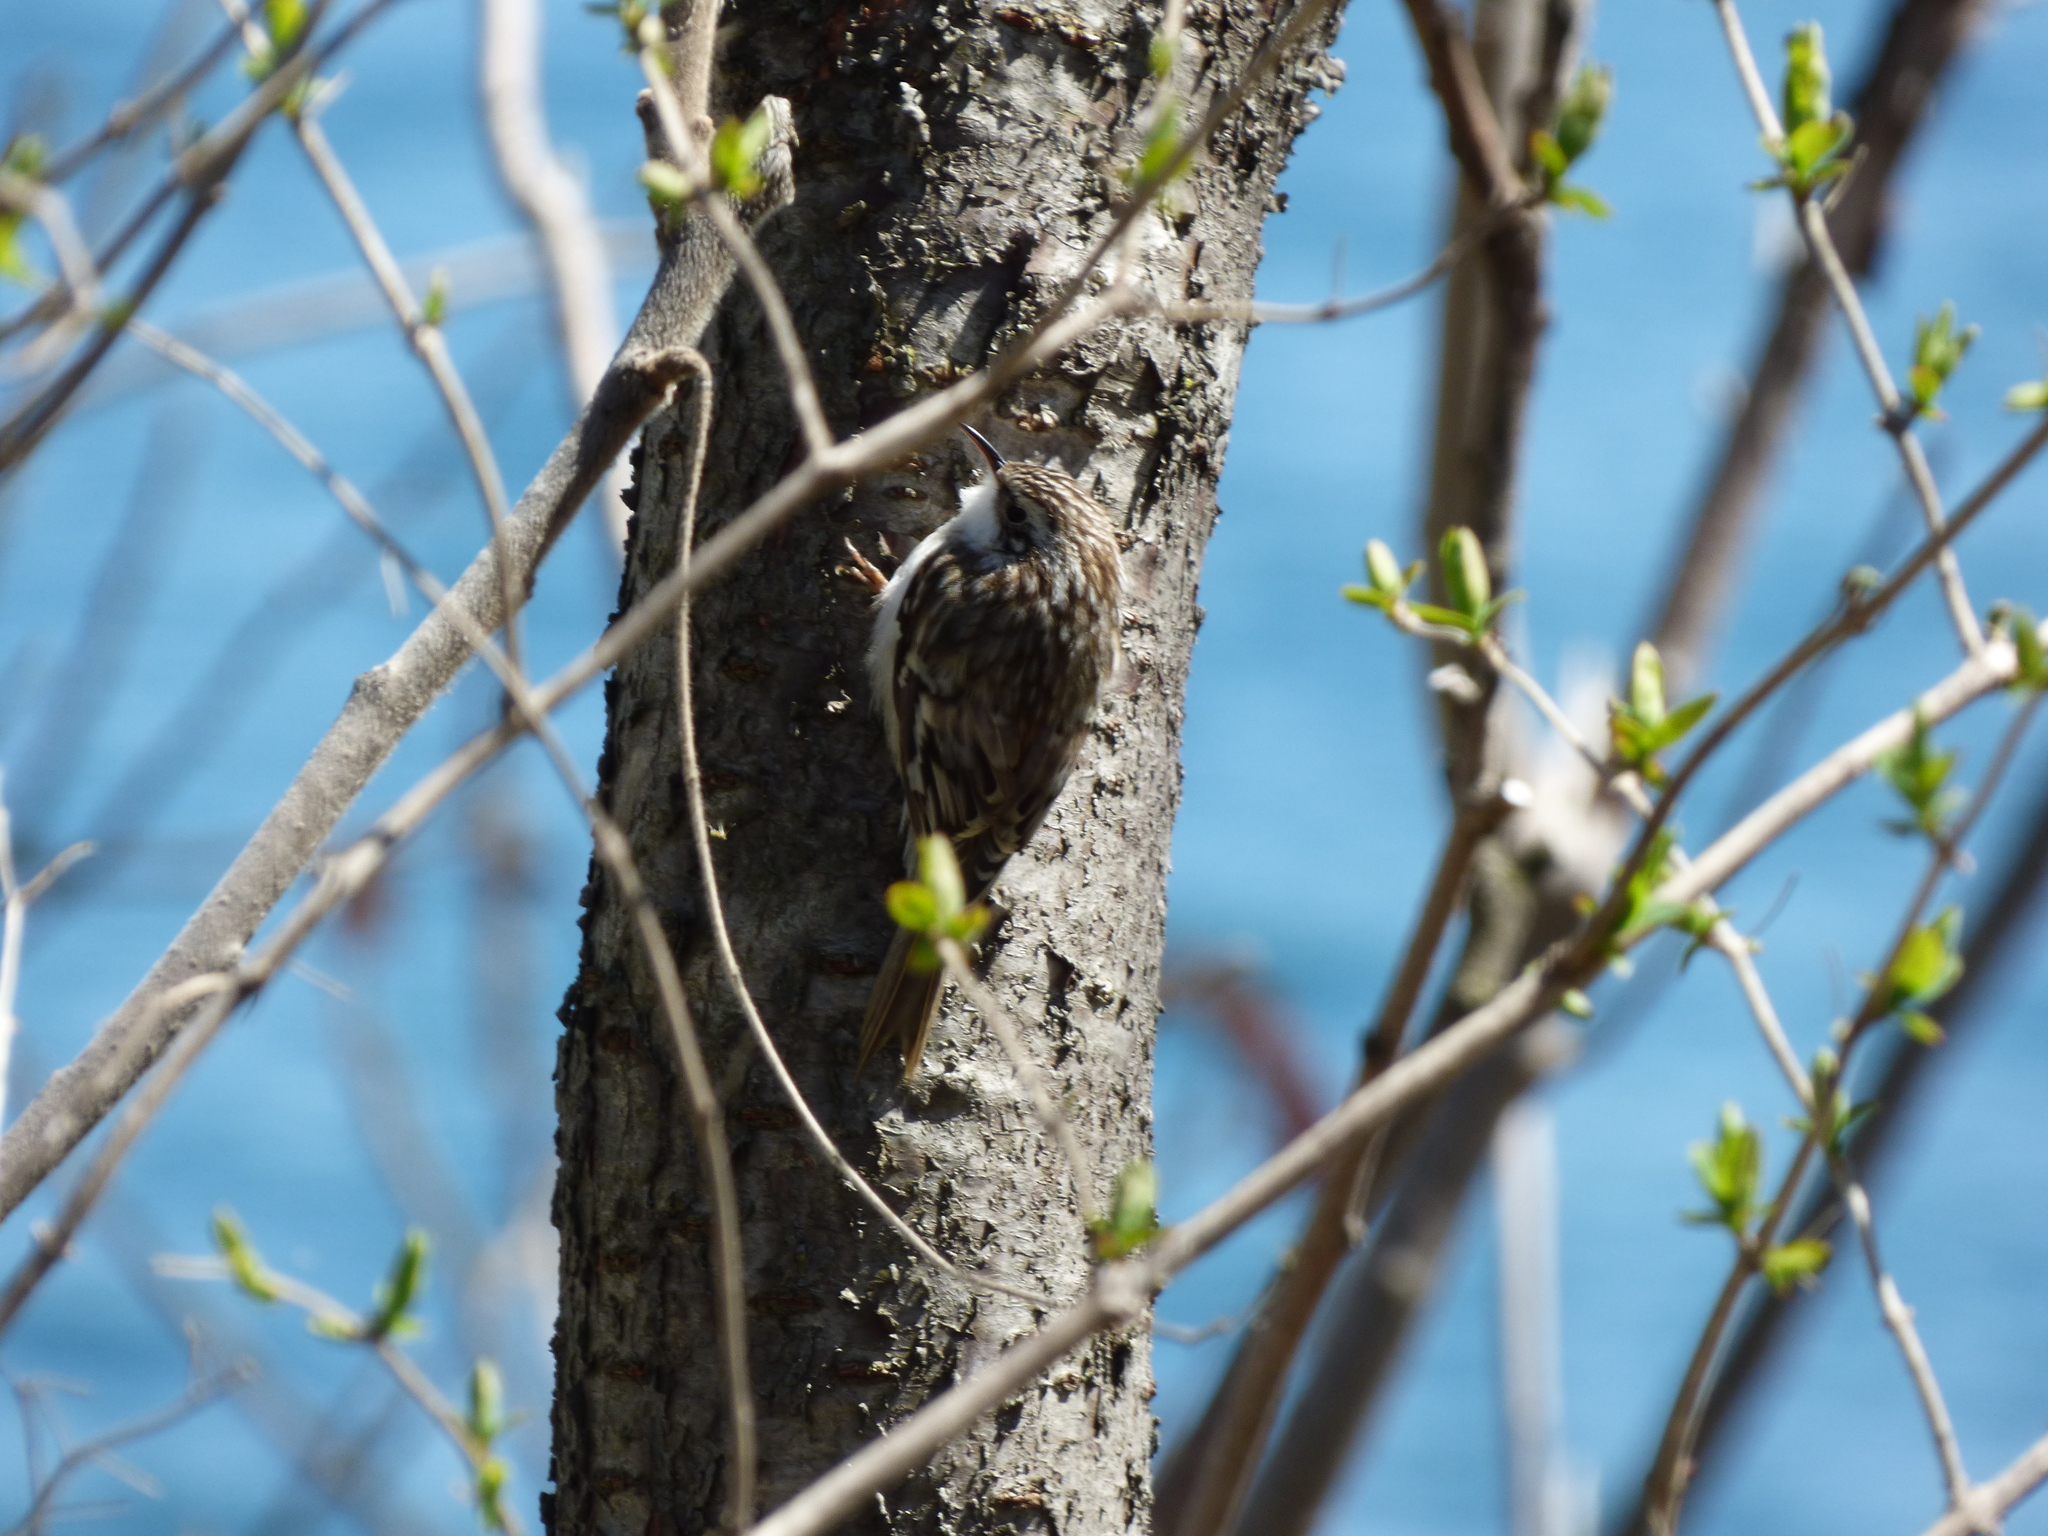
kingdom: Animalia
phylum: Chordata
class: Aves
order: Passeriformes
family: Certhiidae
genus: Certhia
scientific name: Certhia americana
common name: Brown creeper
